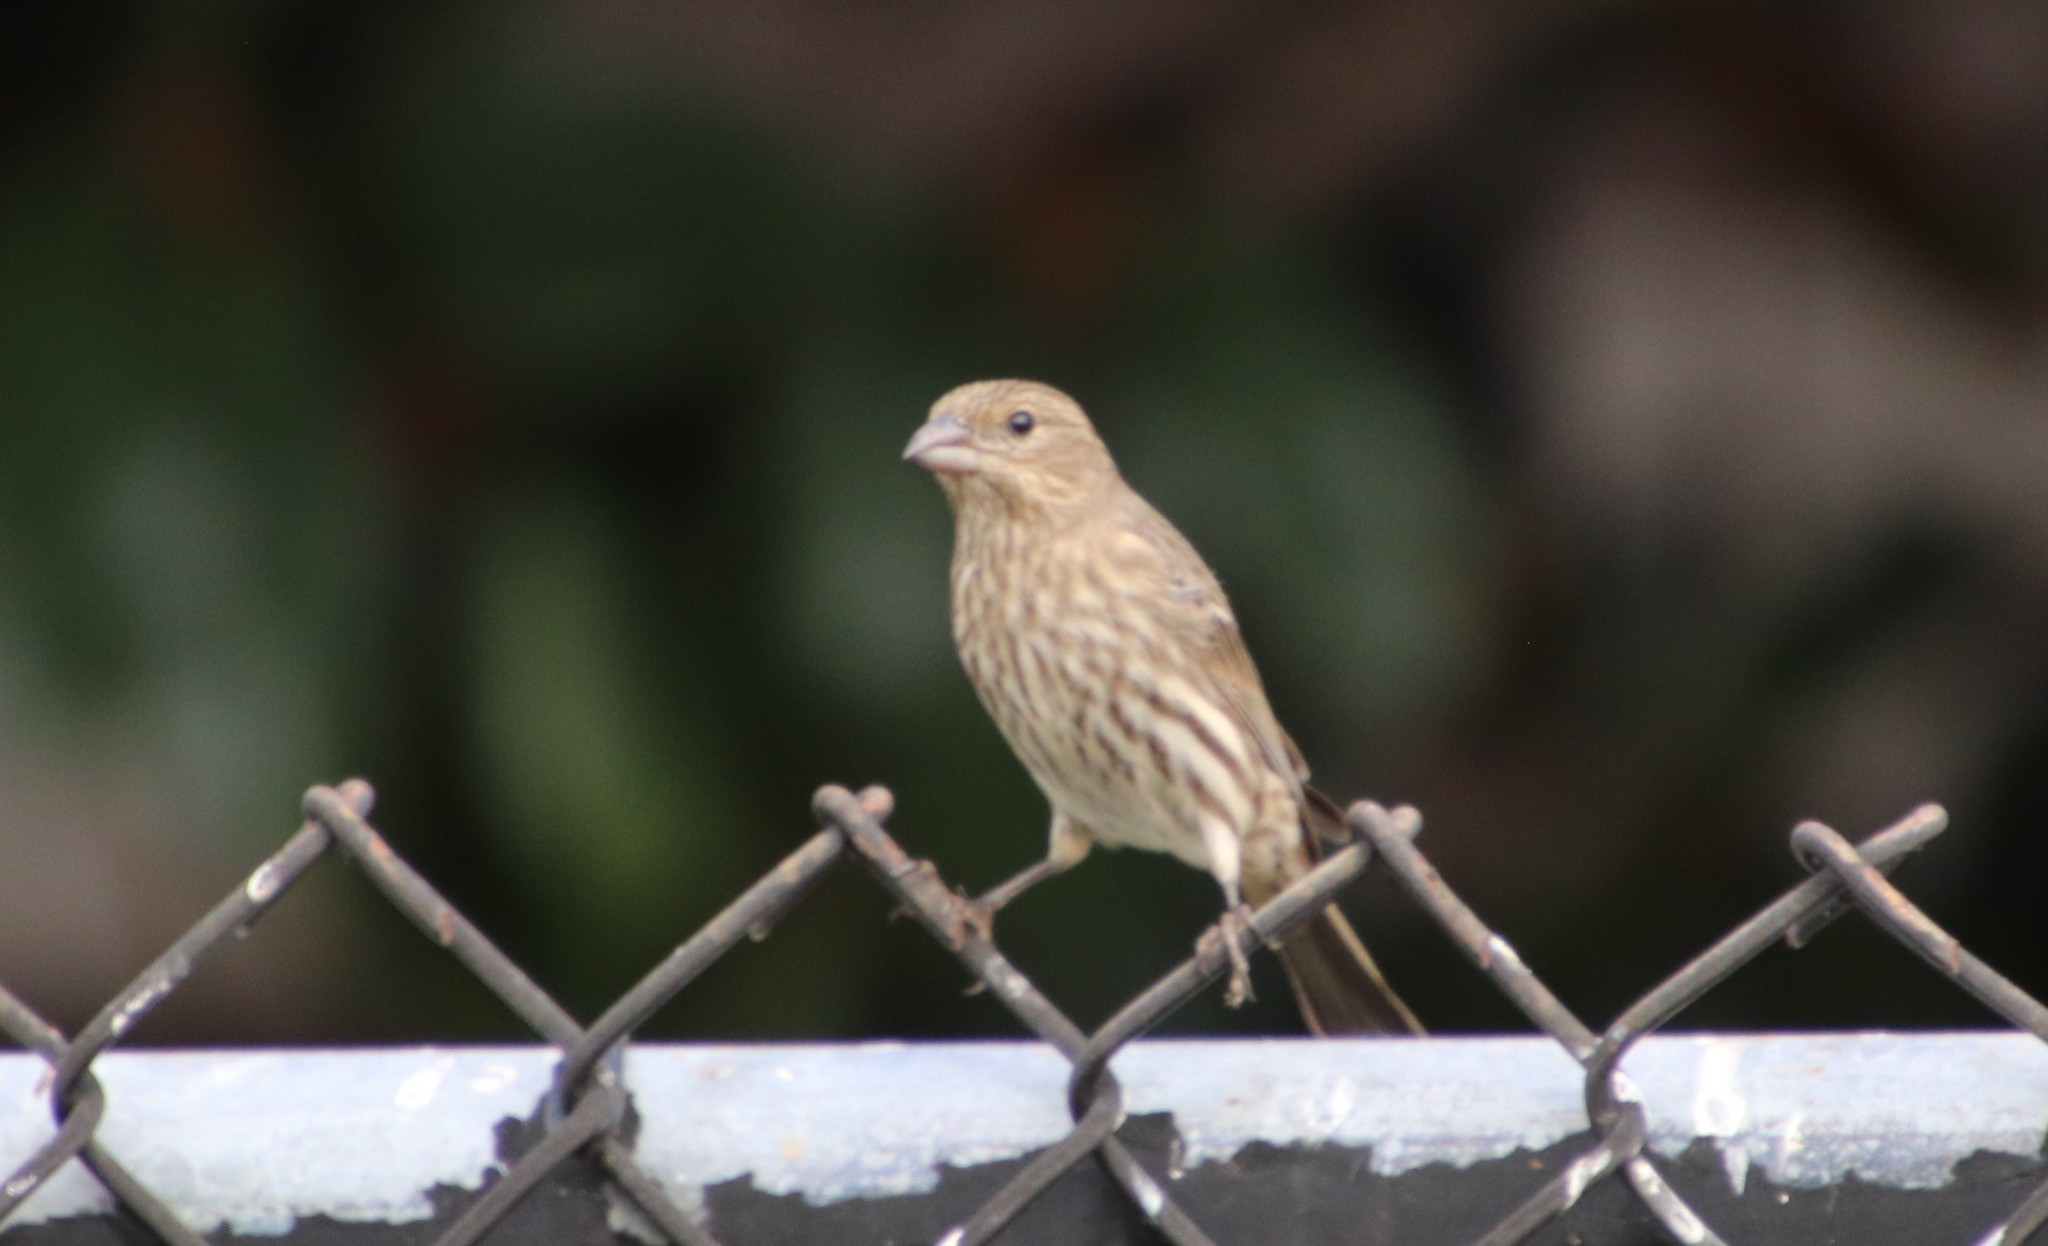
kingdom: Animalia
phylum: Chordata
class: Aves
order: Passeriformes
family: Fringillidae
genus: Haemorhous
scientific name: Haemorhous mexicanus
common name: House finch
